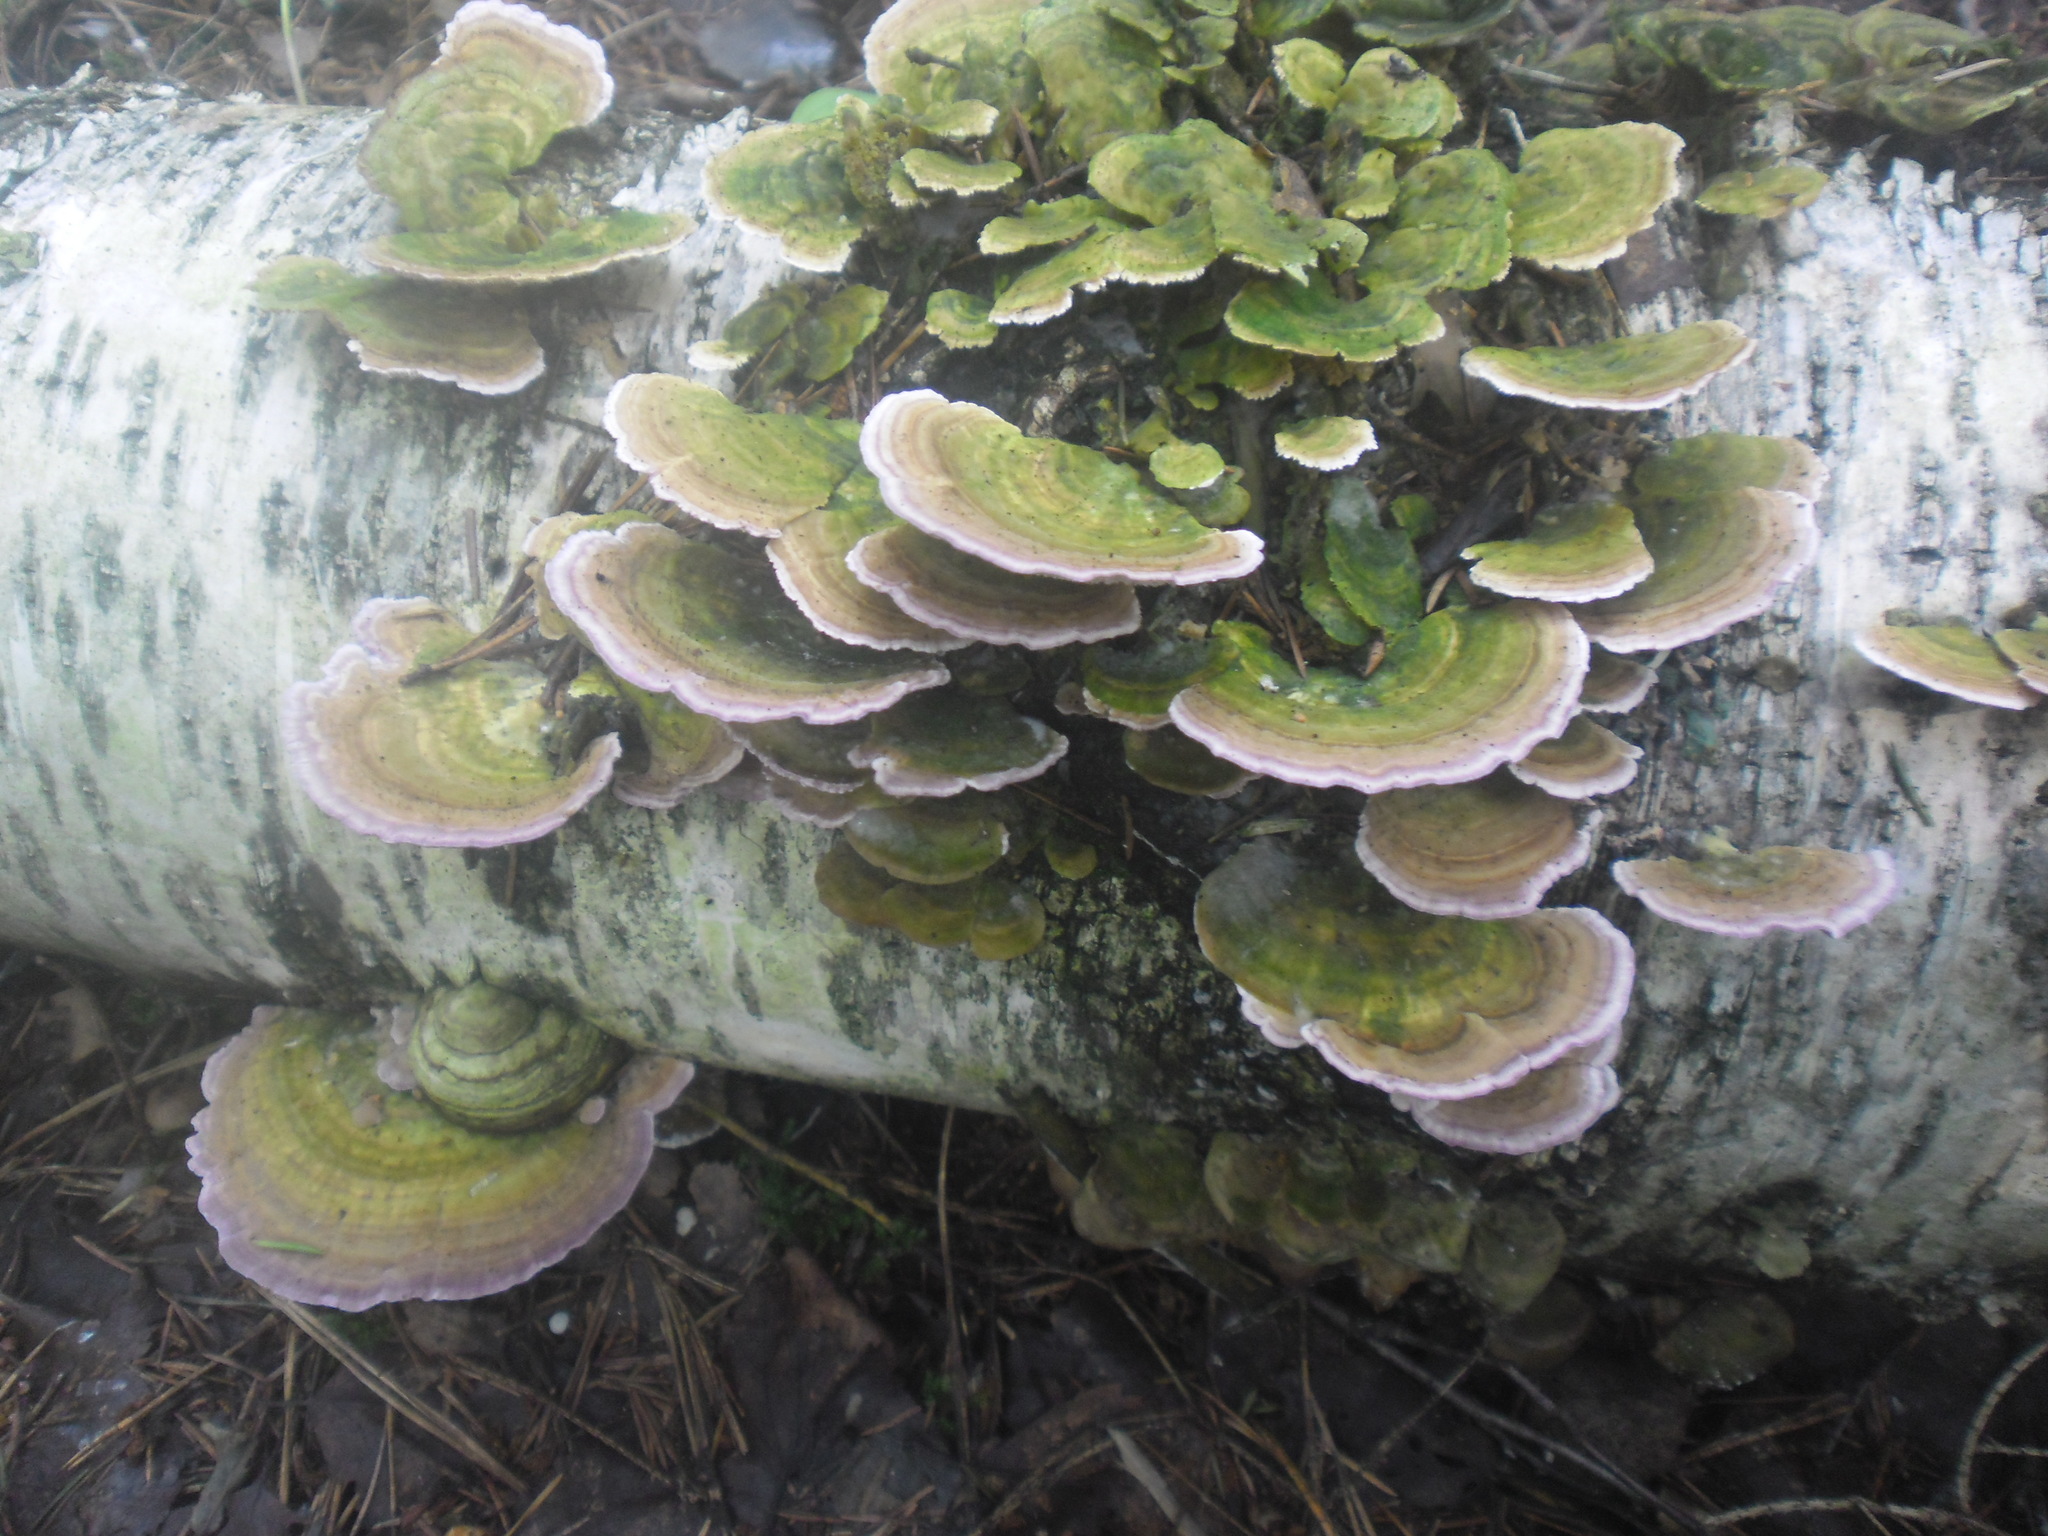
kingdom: Fungi
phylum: Basidiomycota
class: Agaricomycetes
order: Hymenochaetales
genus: Trichaptum
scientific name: Trichaptum biforme
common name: Violet-toothed polypore
